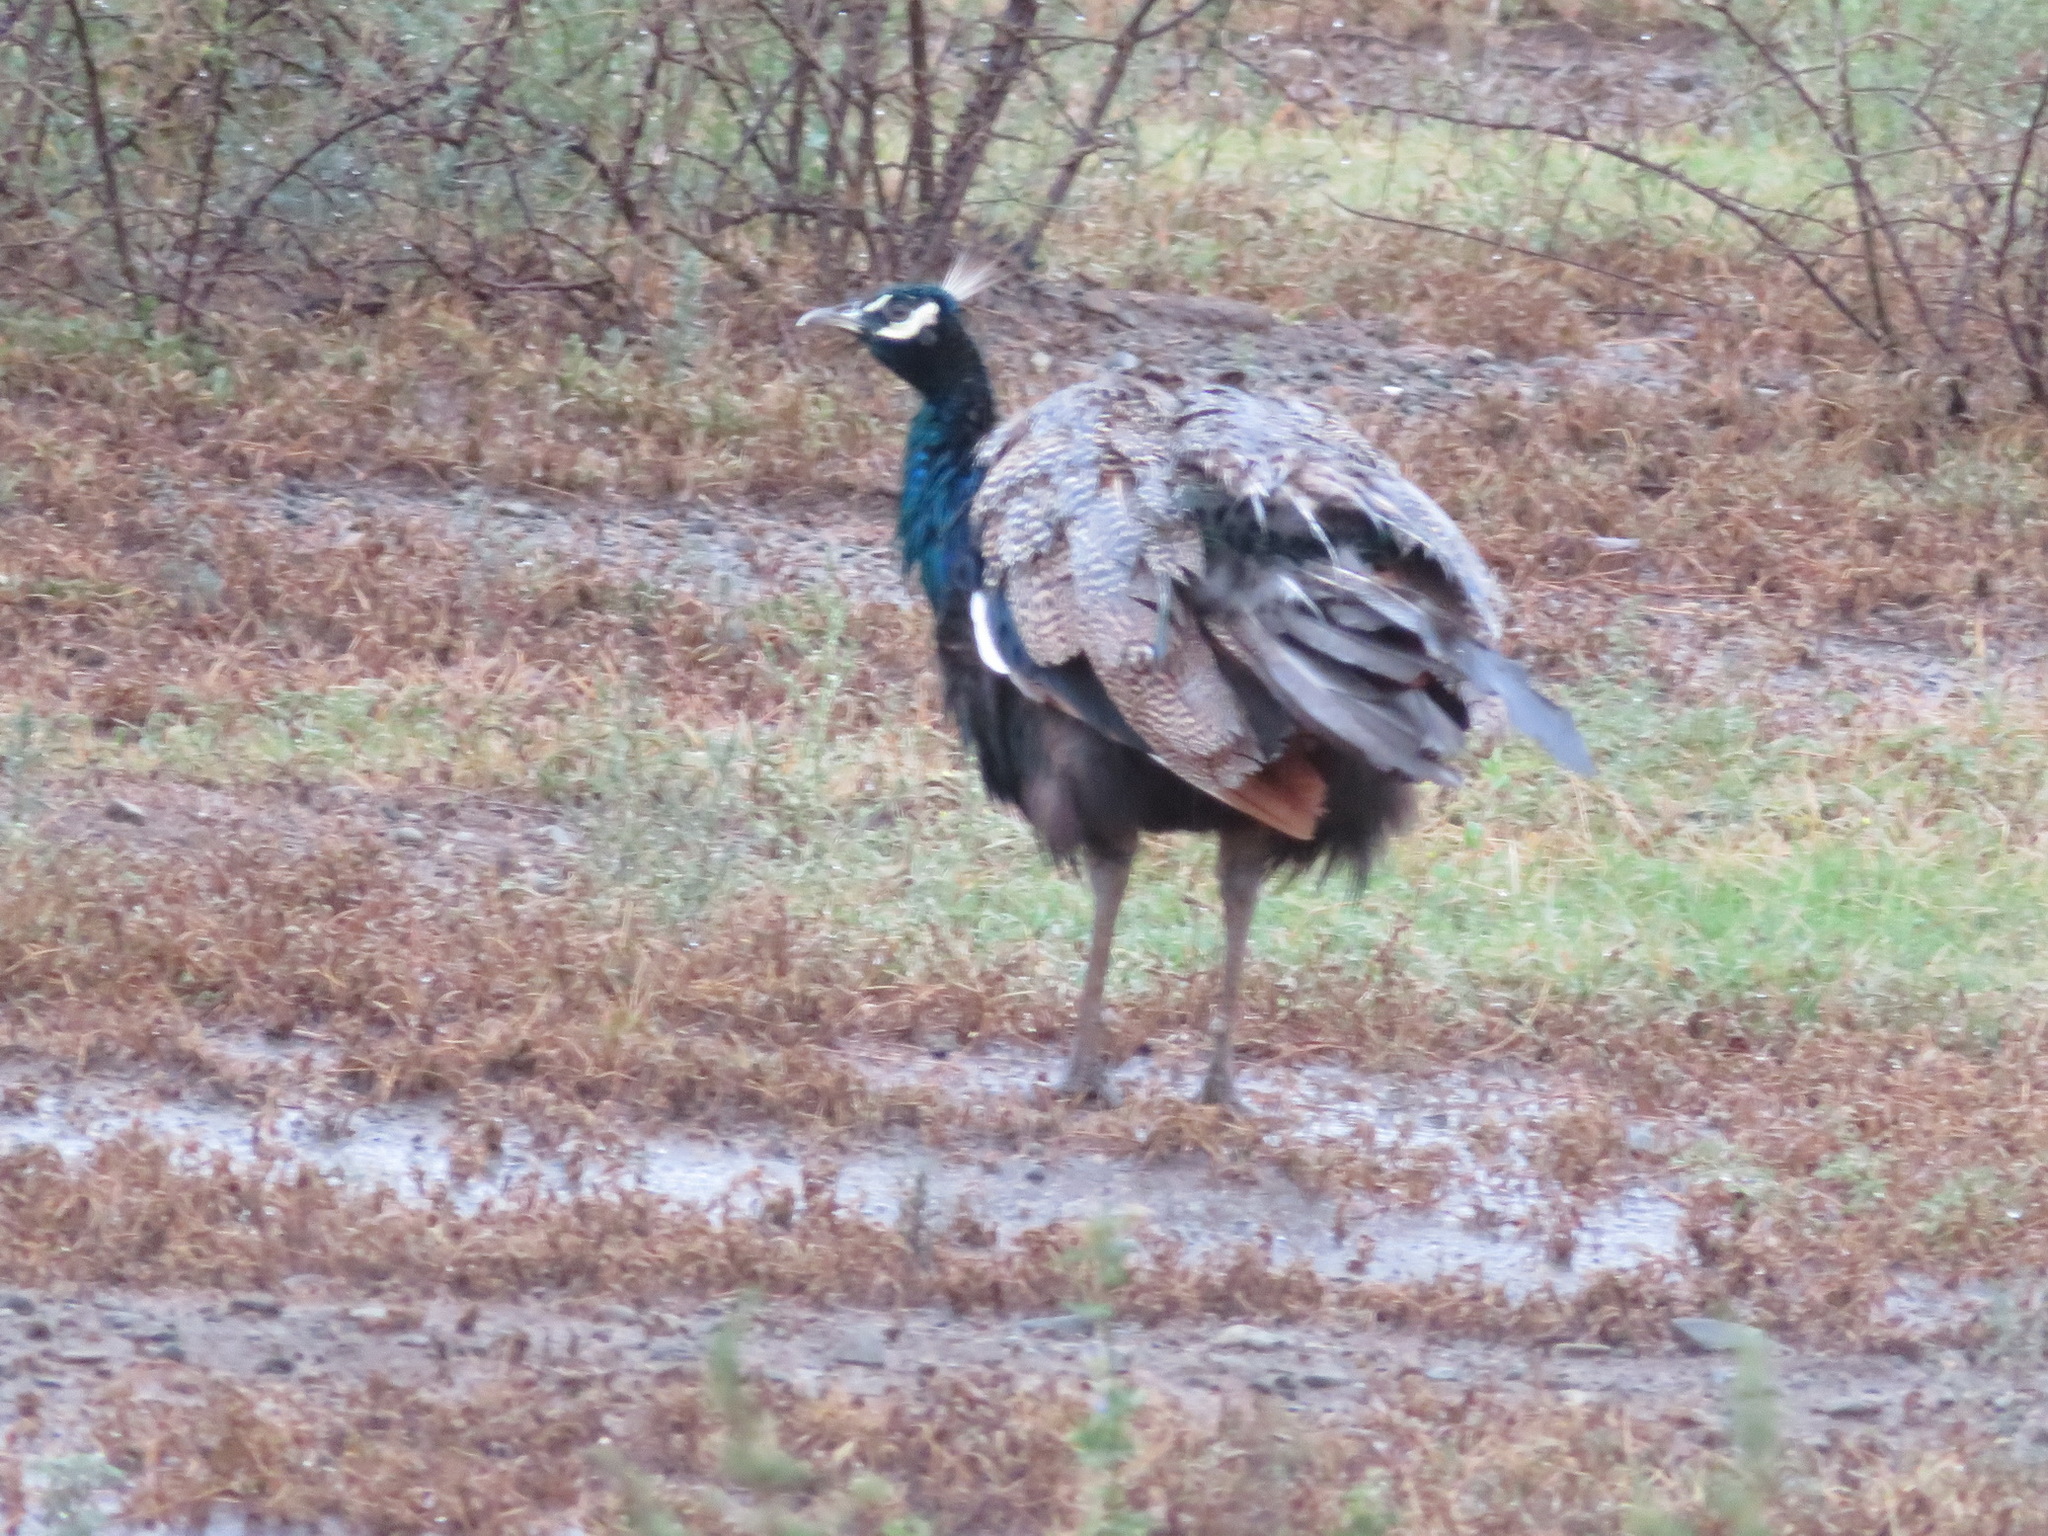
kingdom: Animalia
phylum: Chordata
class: Aves
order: Galliformes
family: Phasianidae
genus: Pavo
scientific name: Pavo cristatus
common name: Indian peafowl
